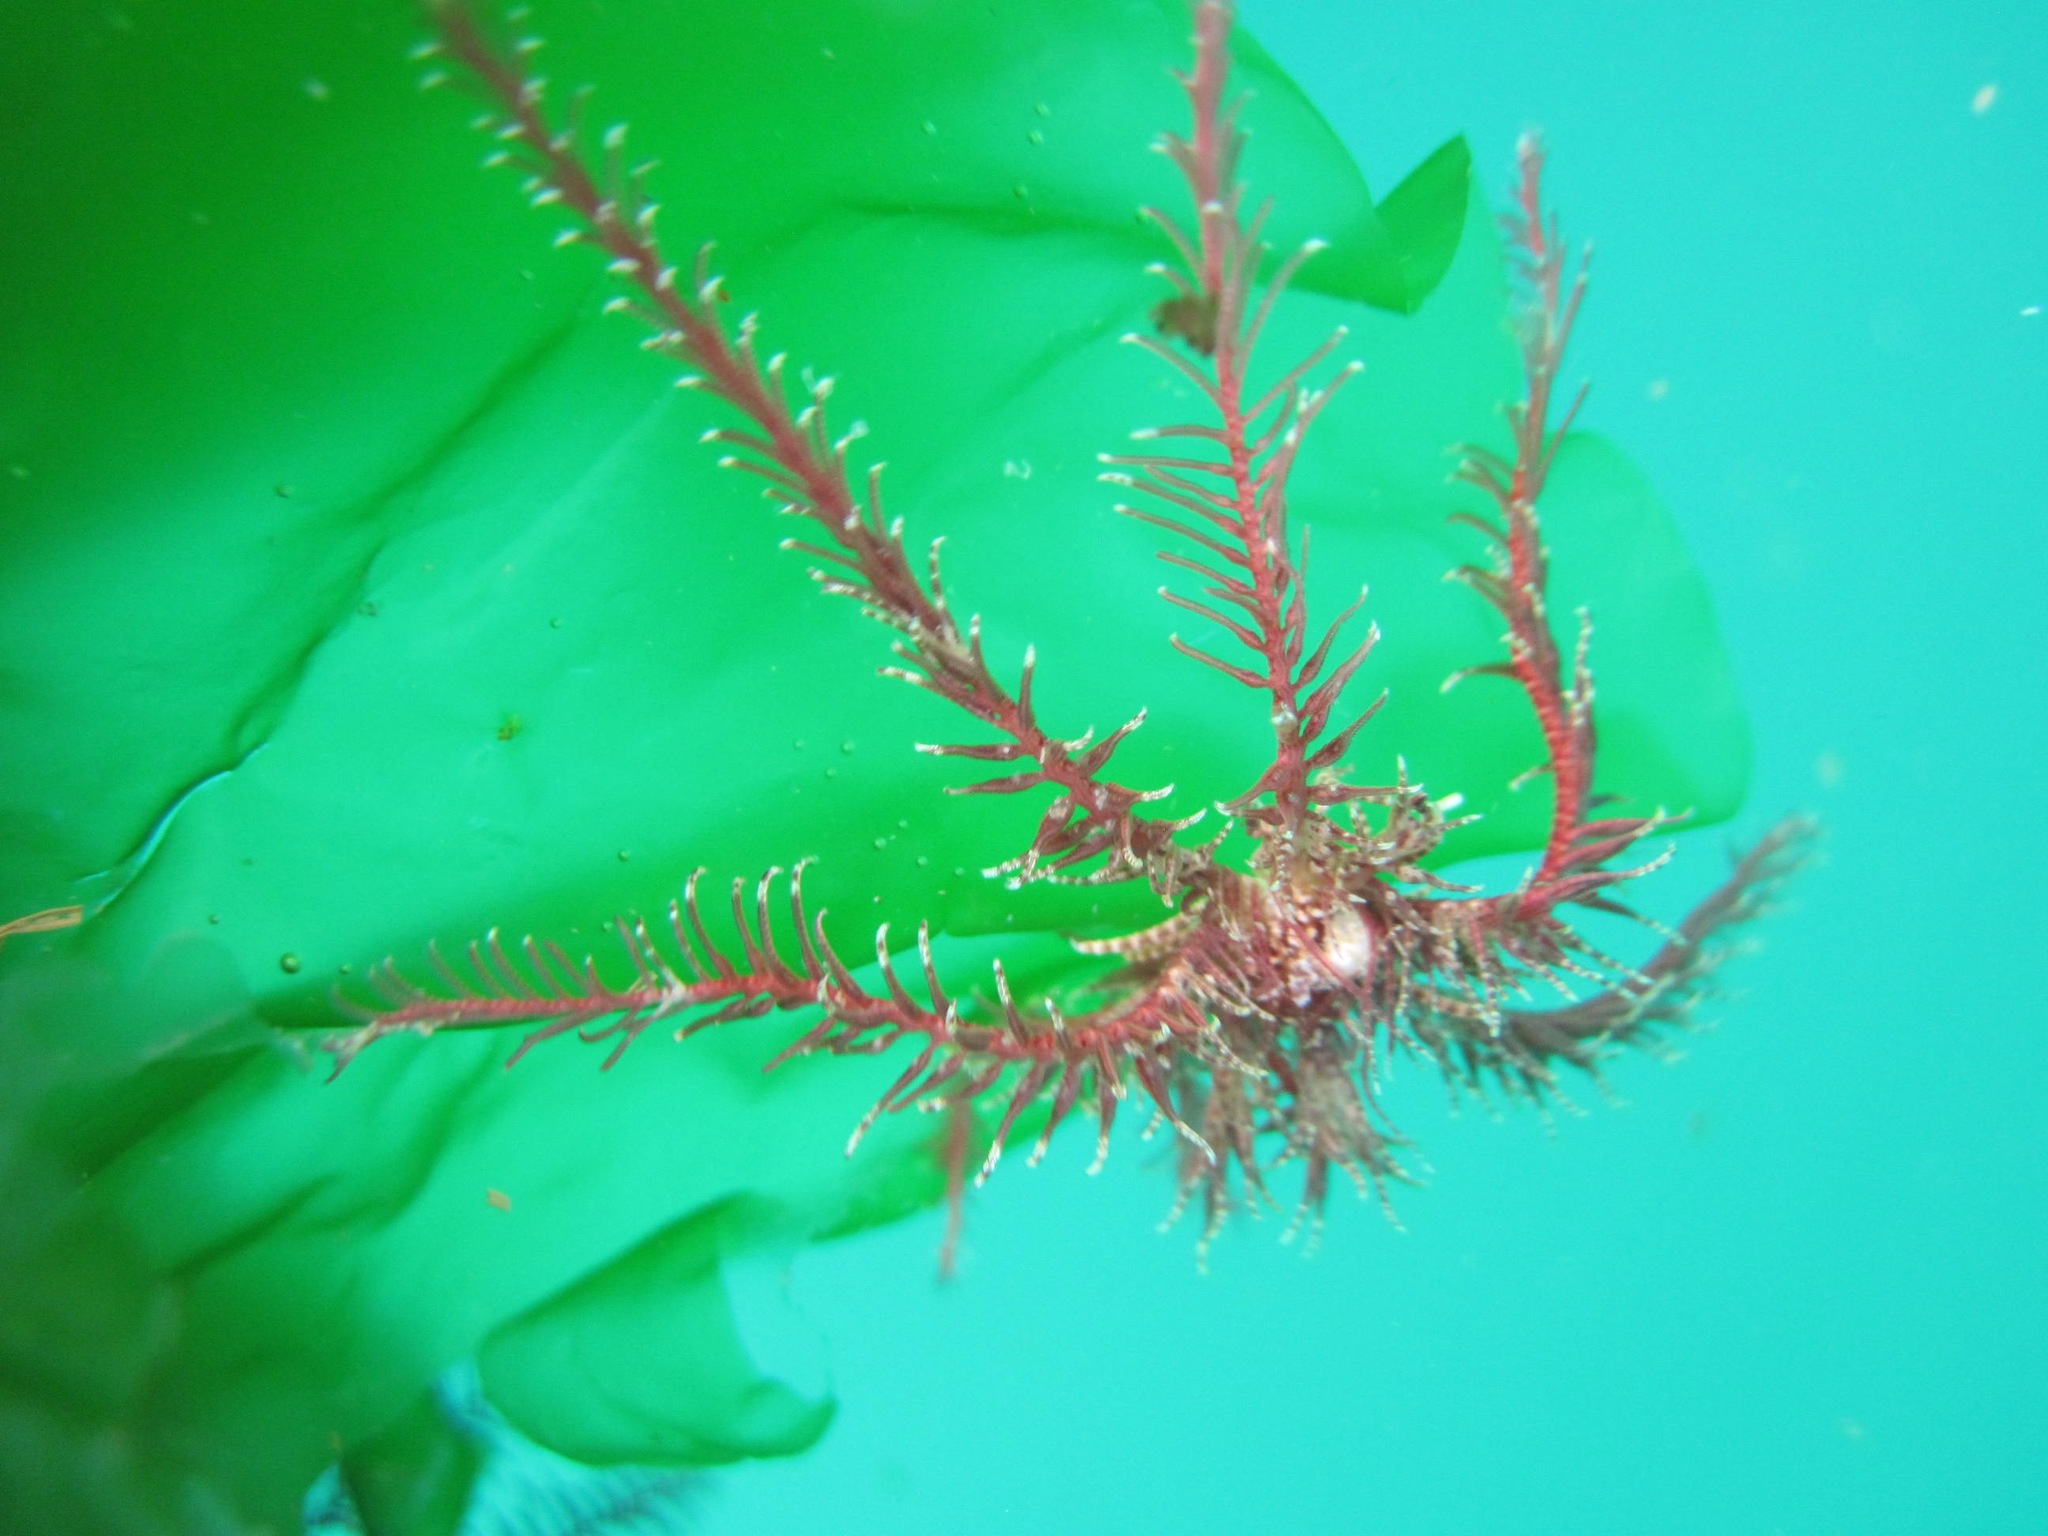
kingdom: Animalia
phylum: Echinodermata
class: Crinoidea
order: Comatulida
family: Antedonidae
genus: Antedon
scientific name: Antedon bifida
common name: Rosy feather-star
